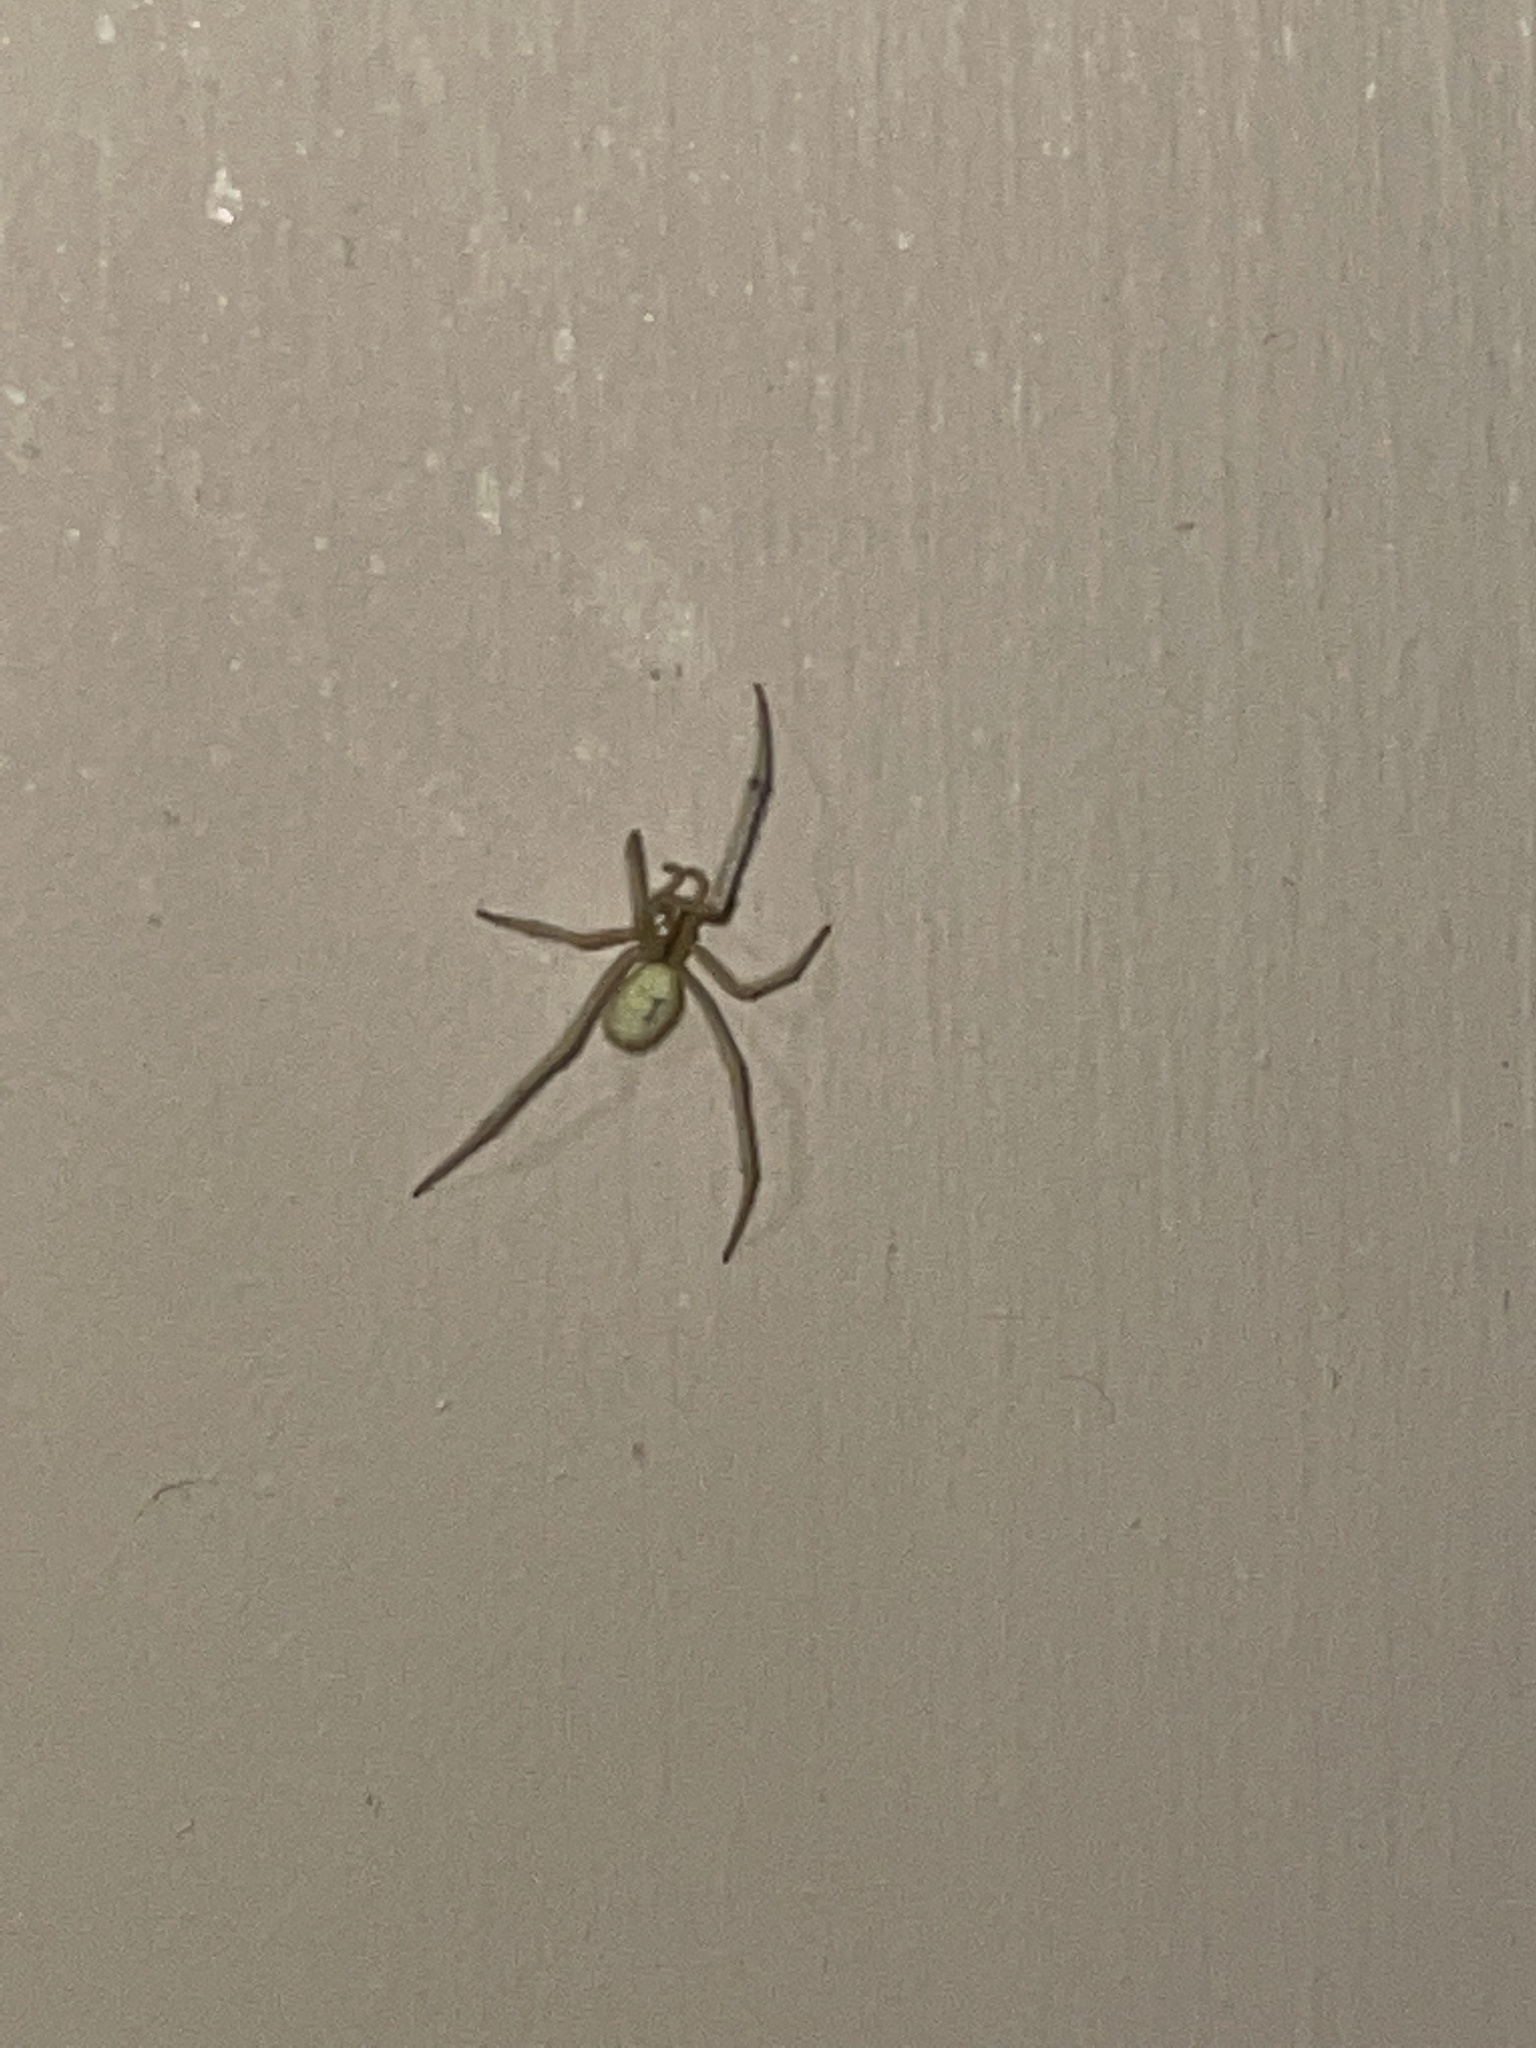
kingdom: Animalia
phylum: Arthropoda
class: Arachnida
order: Araneae
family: Theridiidae
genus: Enoplognatha
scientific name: Enoplognatha ovata
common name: Common candy-striped spider
